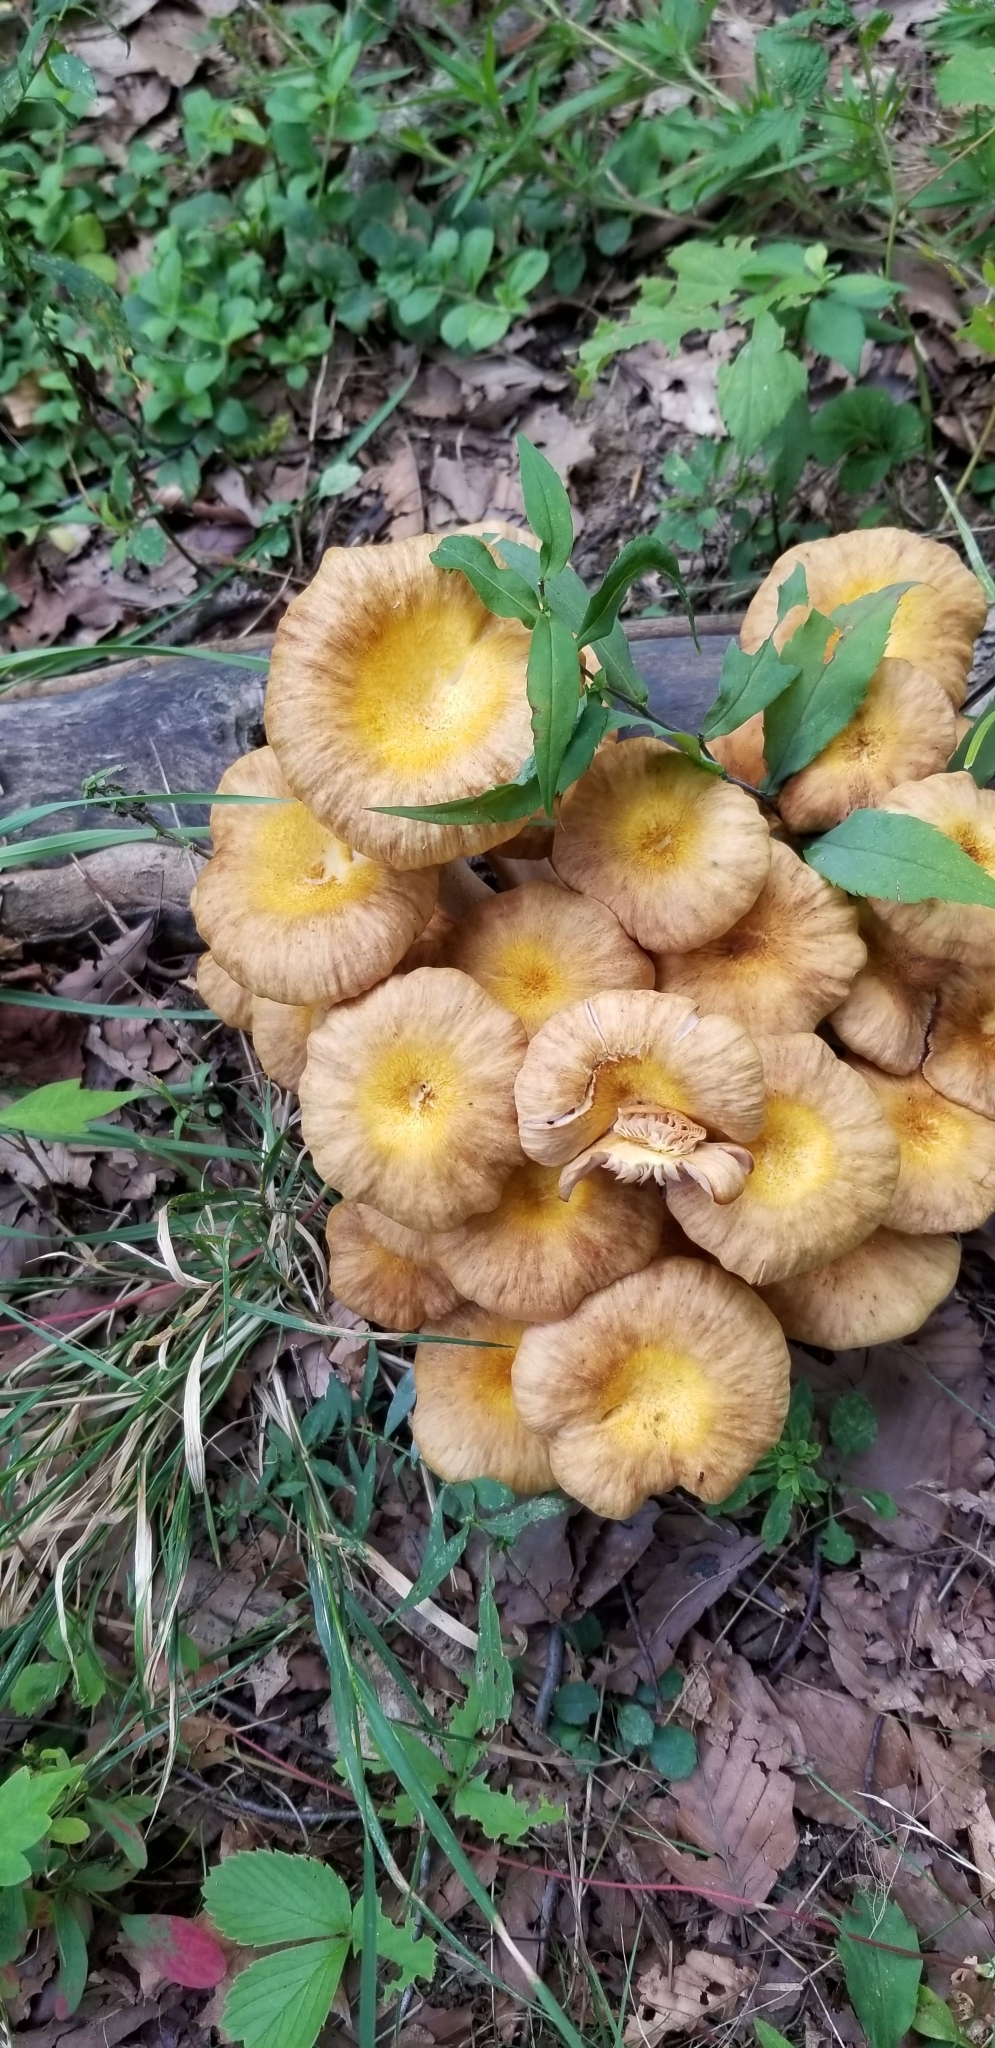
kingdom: Fungi
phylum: Basidiomycota
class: Agaricomycetes
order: Agaricales
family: Physalacriaceae
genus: Desarmillaria
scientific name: Desarmillaria caespitosa
